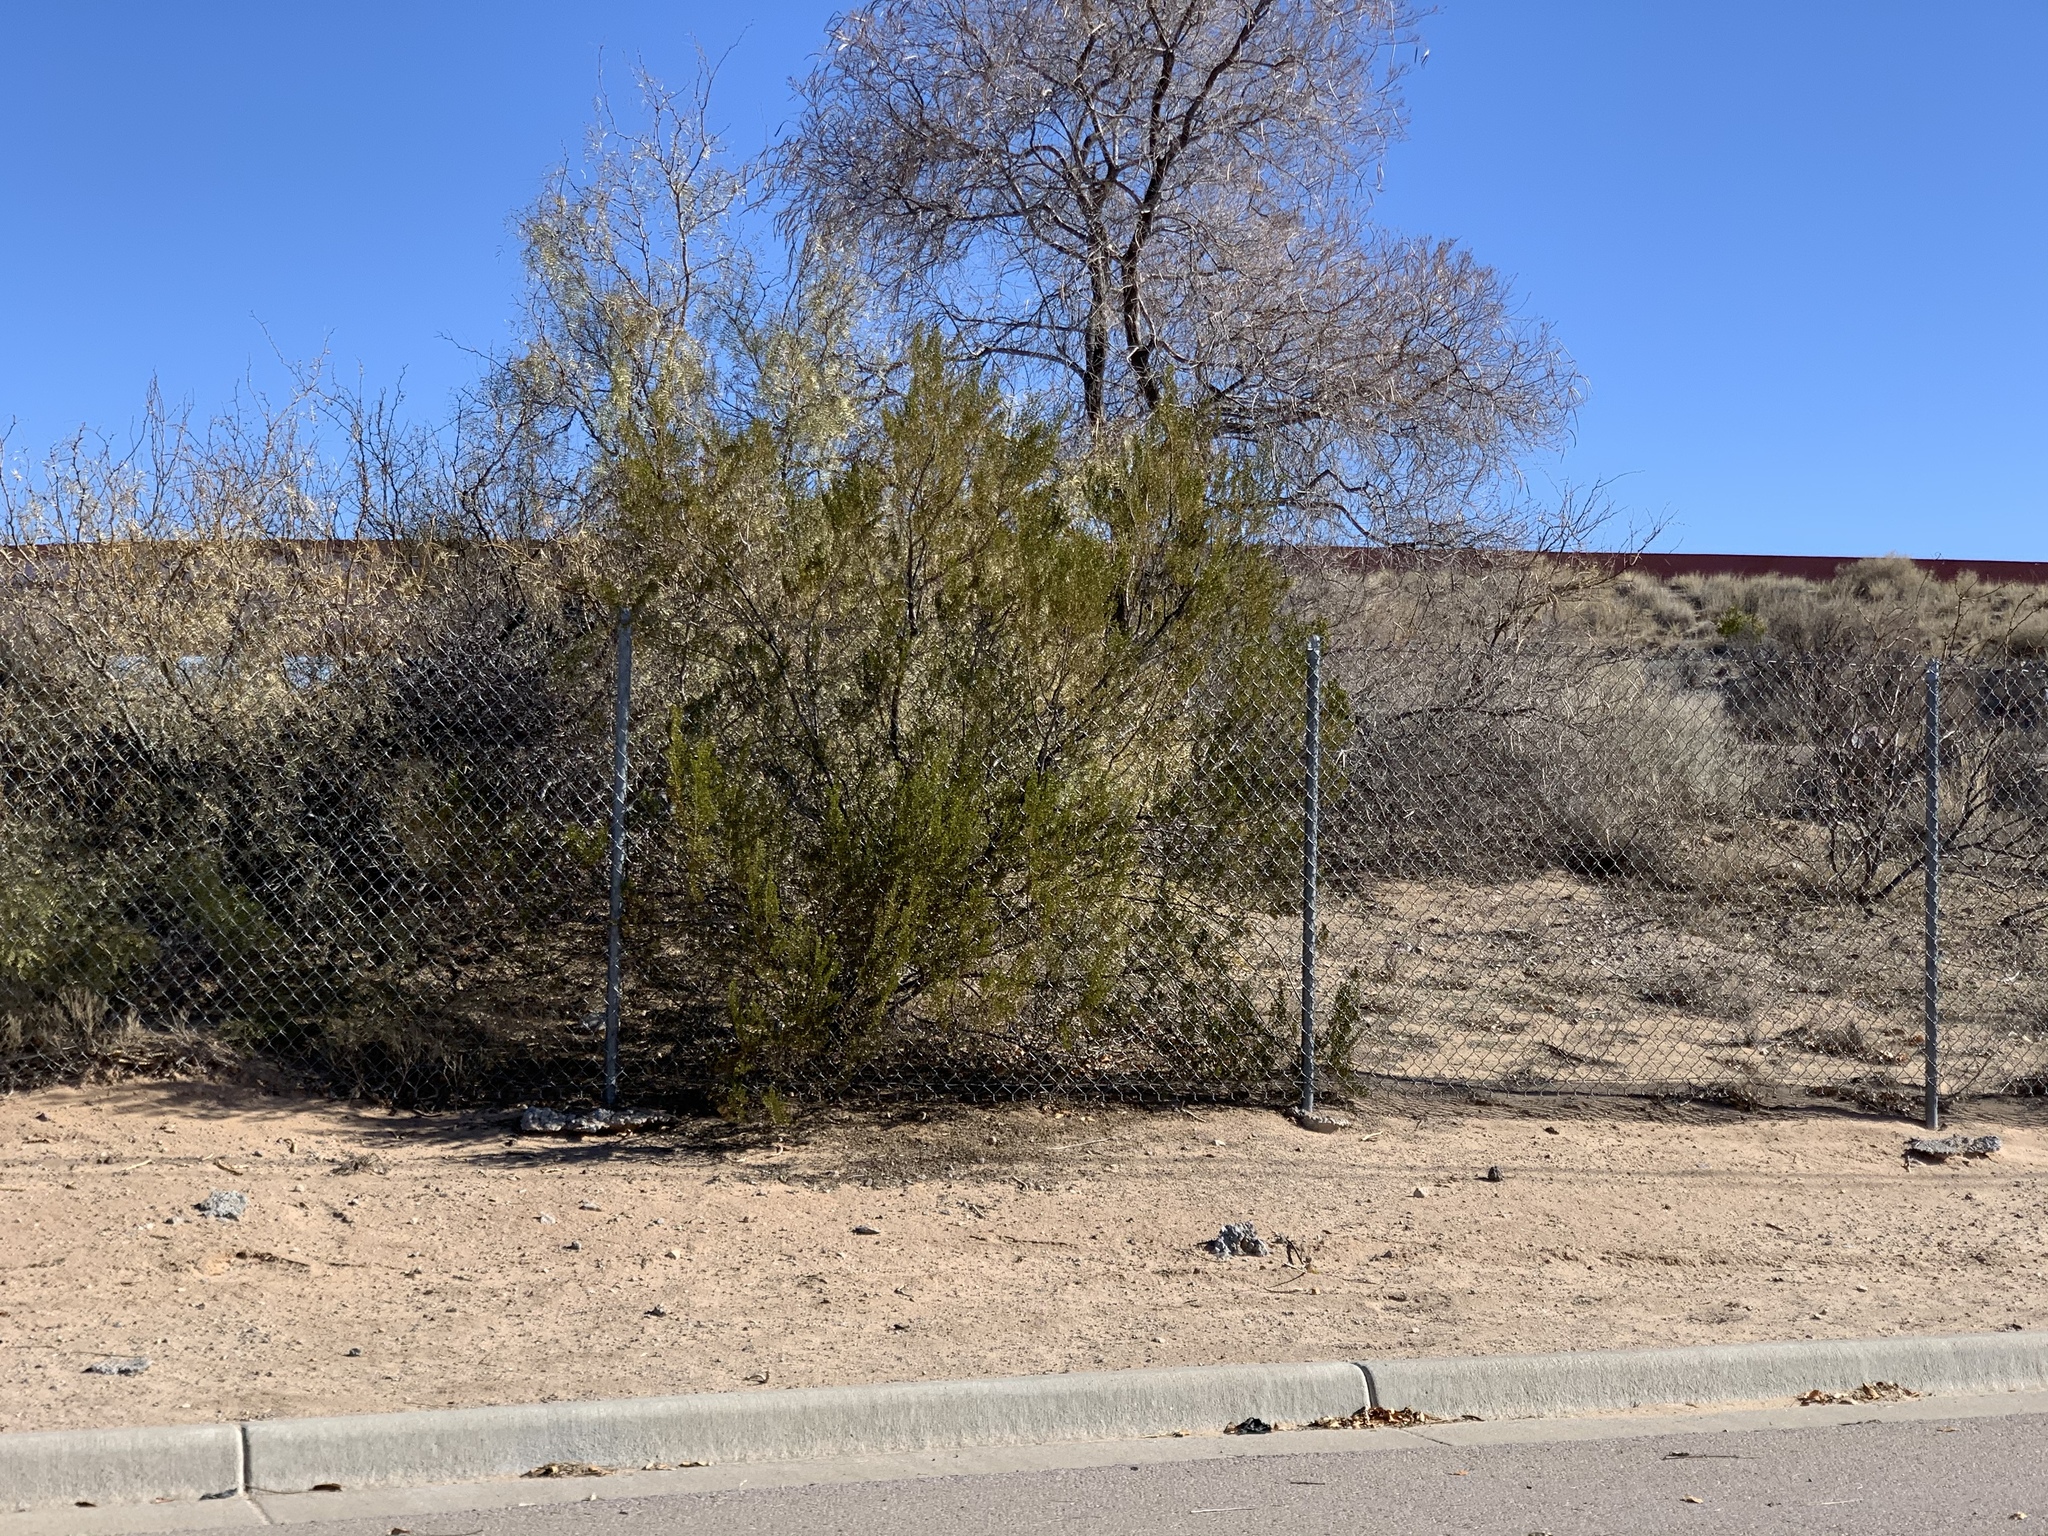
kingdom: Plantae
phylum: Tracheophyta
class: Magnoliopsida
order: Zygophyllales
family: Zygophyllaceae
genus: Larrea
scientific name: Larrea tridentata
